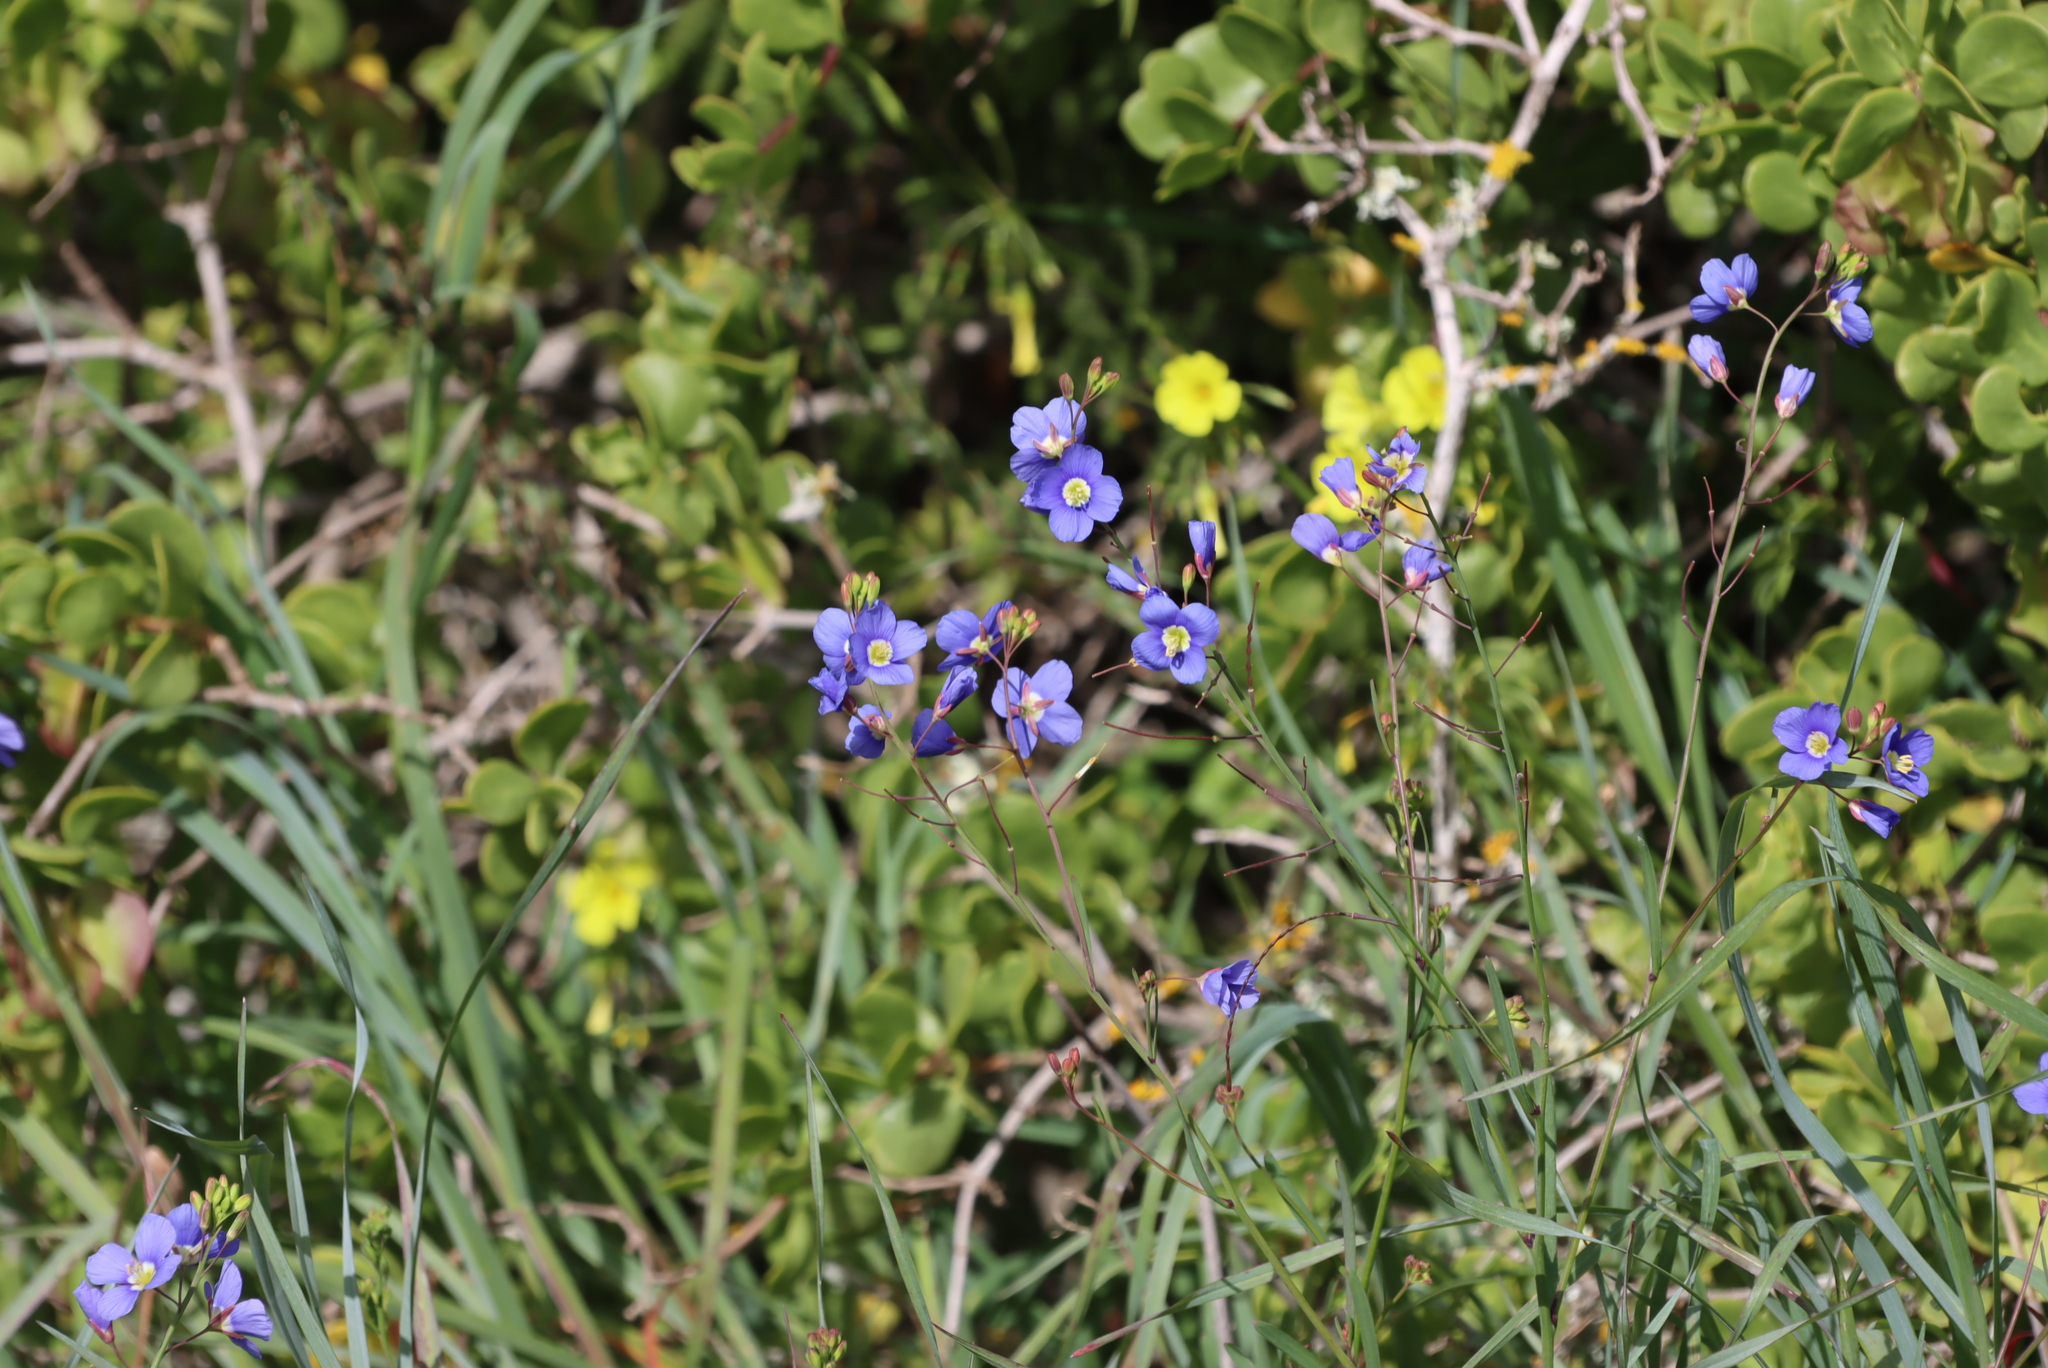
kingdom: Plantae
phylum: Tracheophyta
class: Magnoliopsida
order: Brassicales
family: Brassicaceae
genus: Heliophila
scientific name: Heliophila coronopifolia
